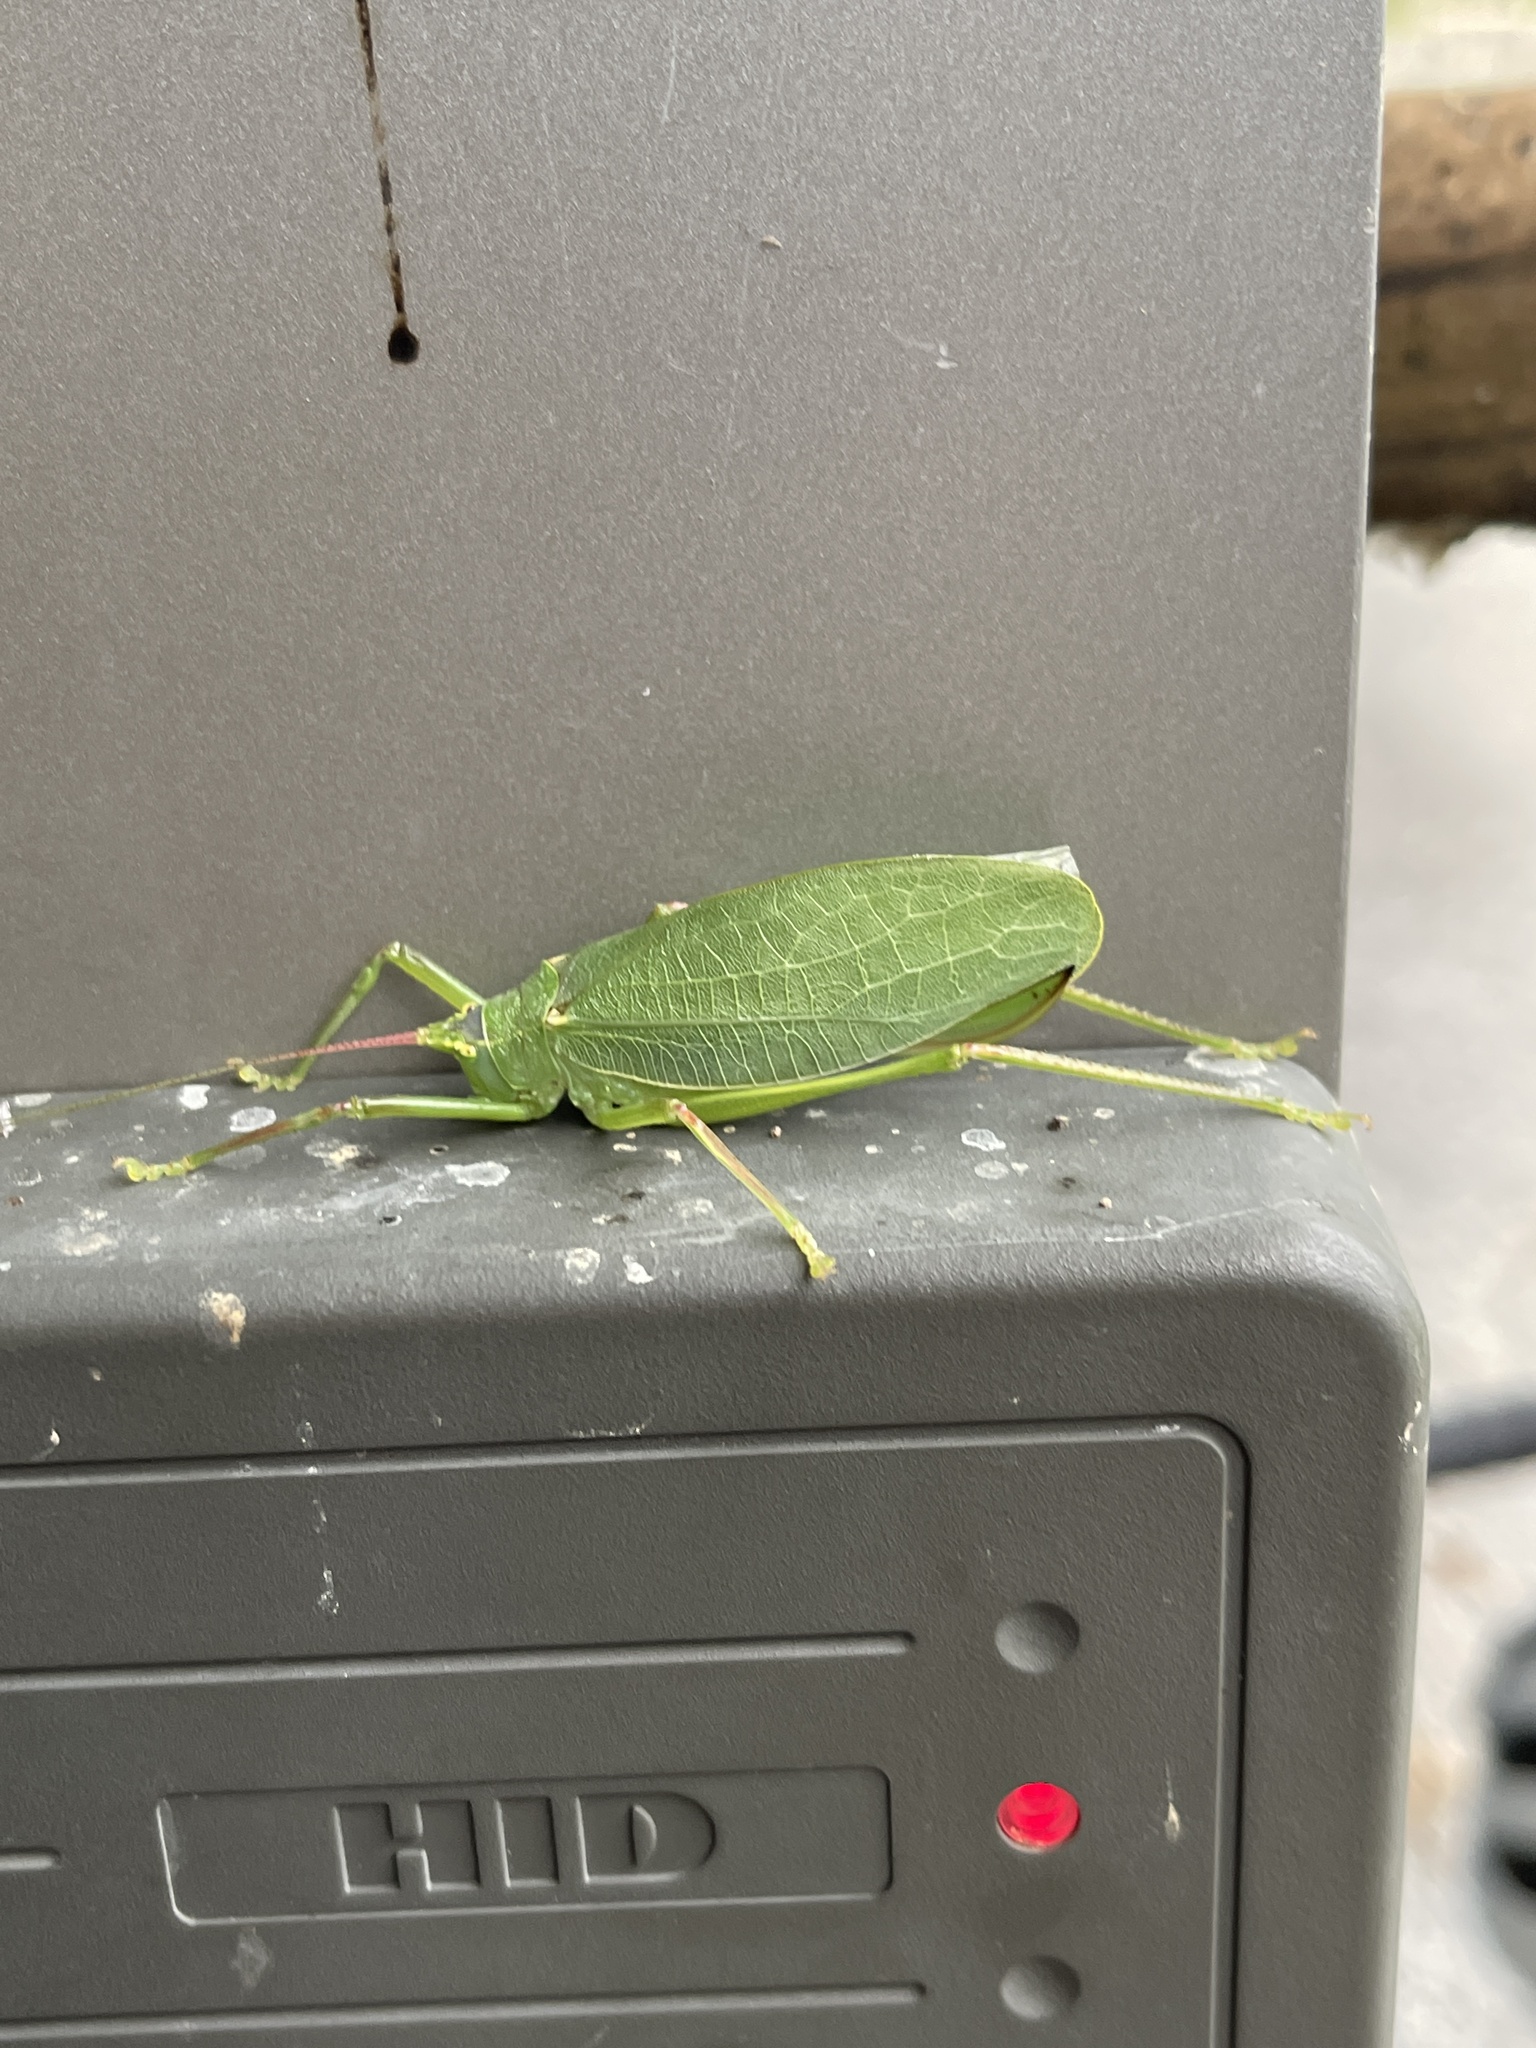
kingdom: Animalia
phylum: Arthropoda
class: Insecta
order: Orthoptera
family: Tettigoniidae
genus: Pterophylla
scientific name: Pterophylla camellifolia
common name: Common true katydid
